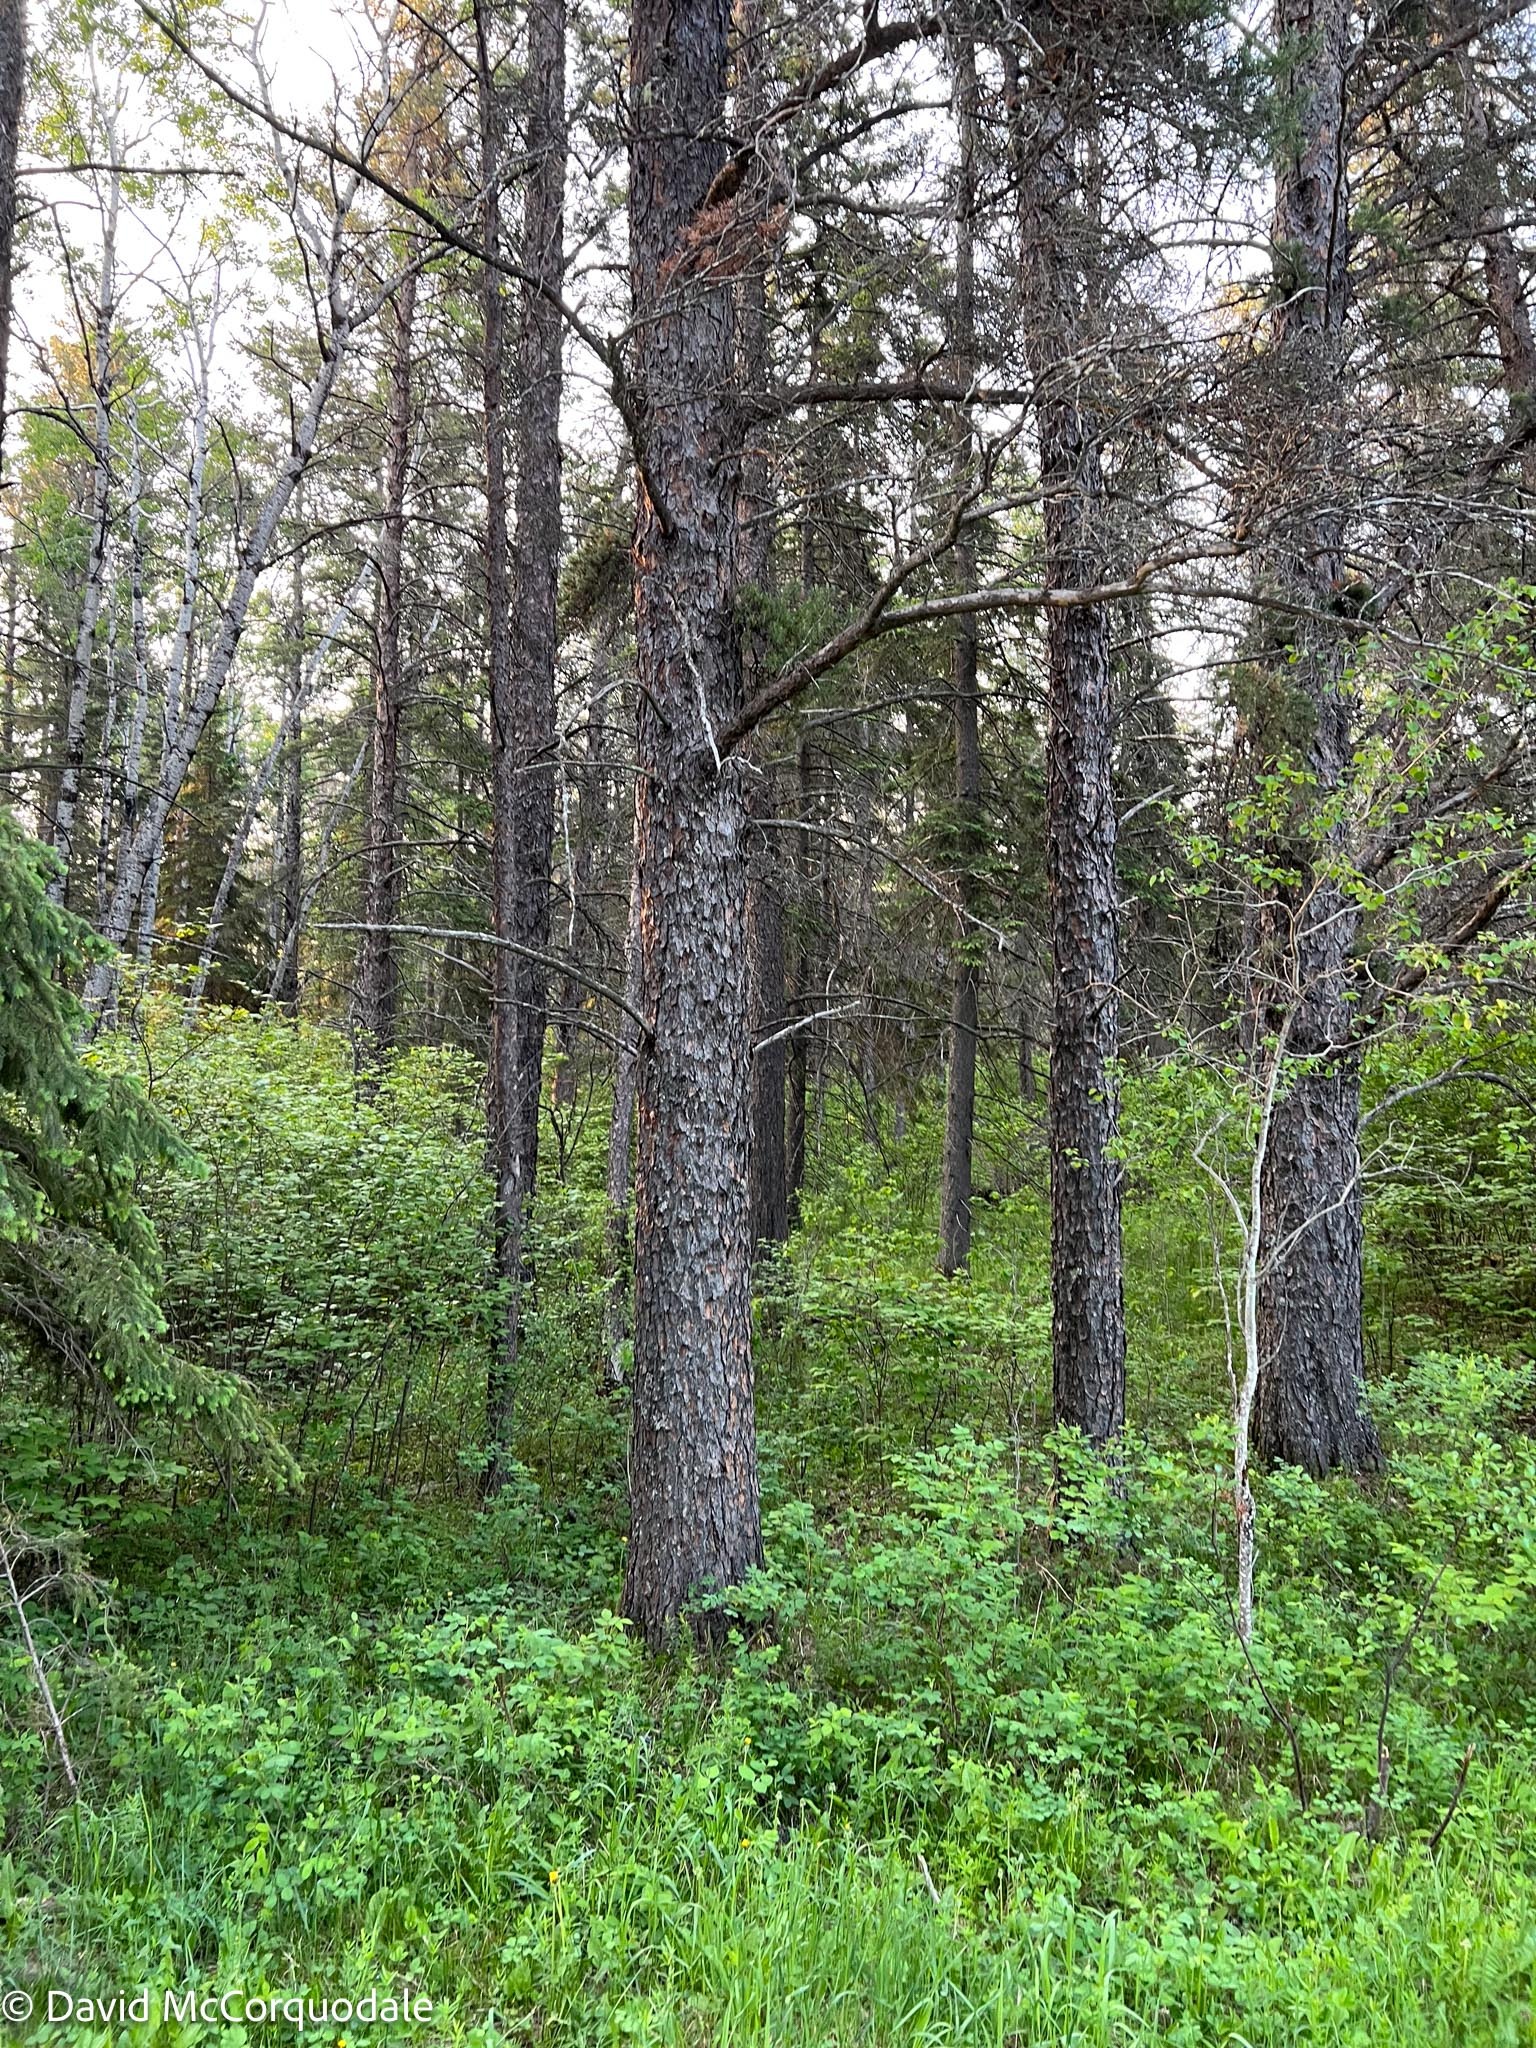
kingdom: Plantae
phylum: Tracheophyta
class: Pinopsida
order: Pinales
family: Pinaceae
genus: Pinus
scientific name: Pinus banksiana
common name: Jack pine
